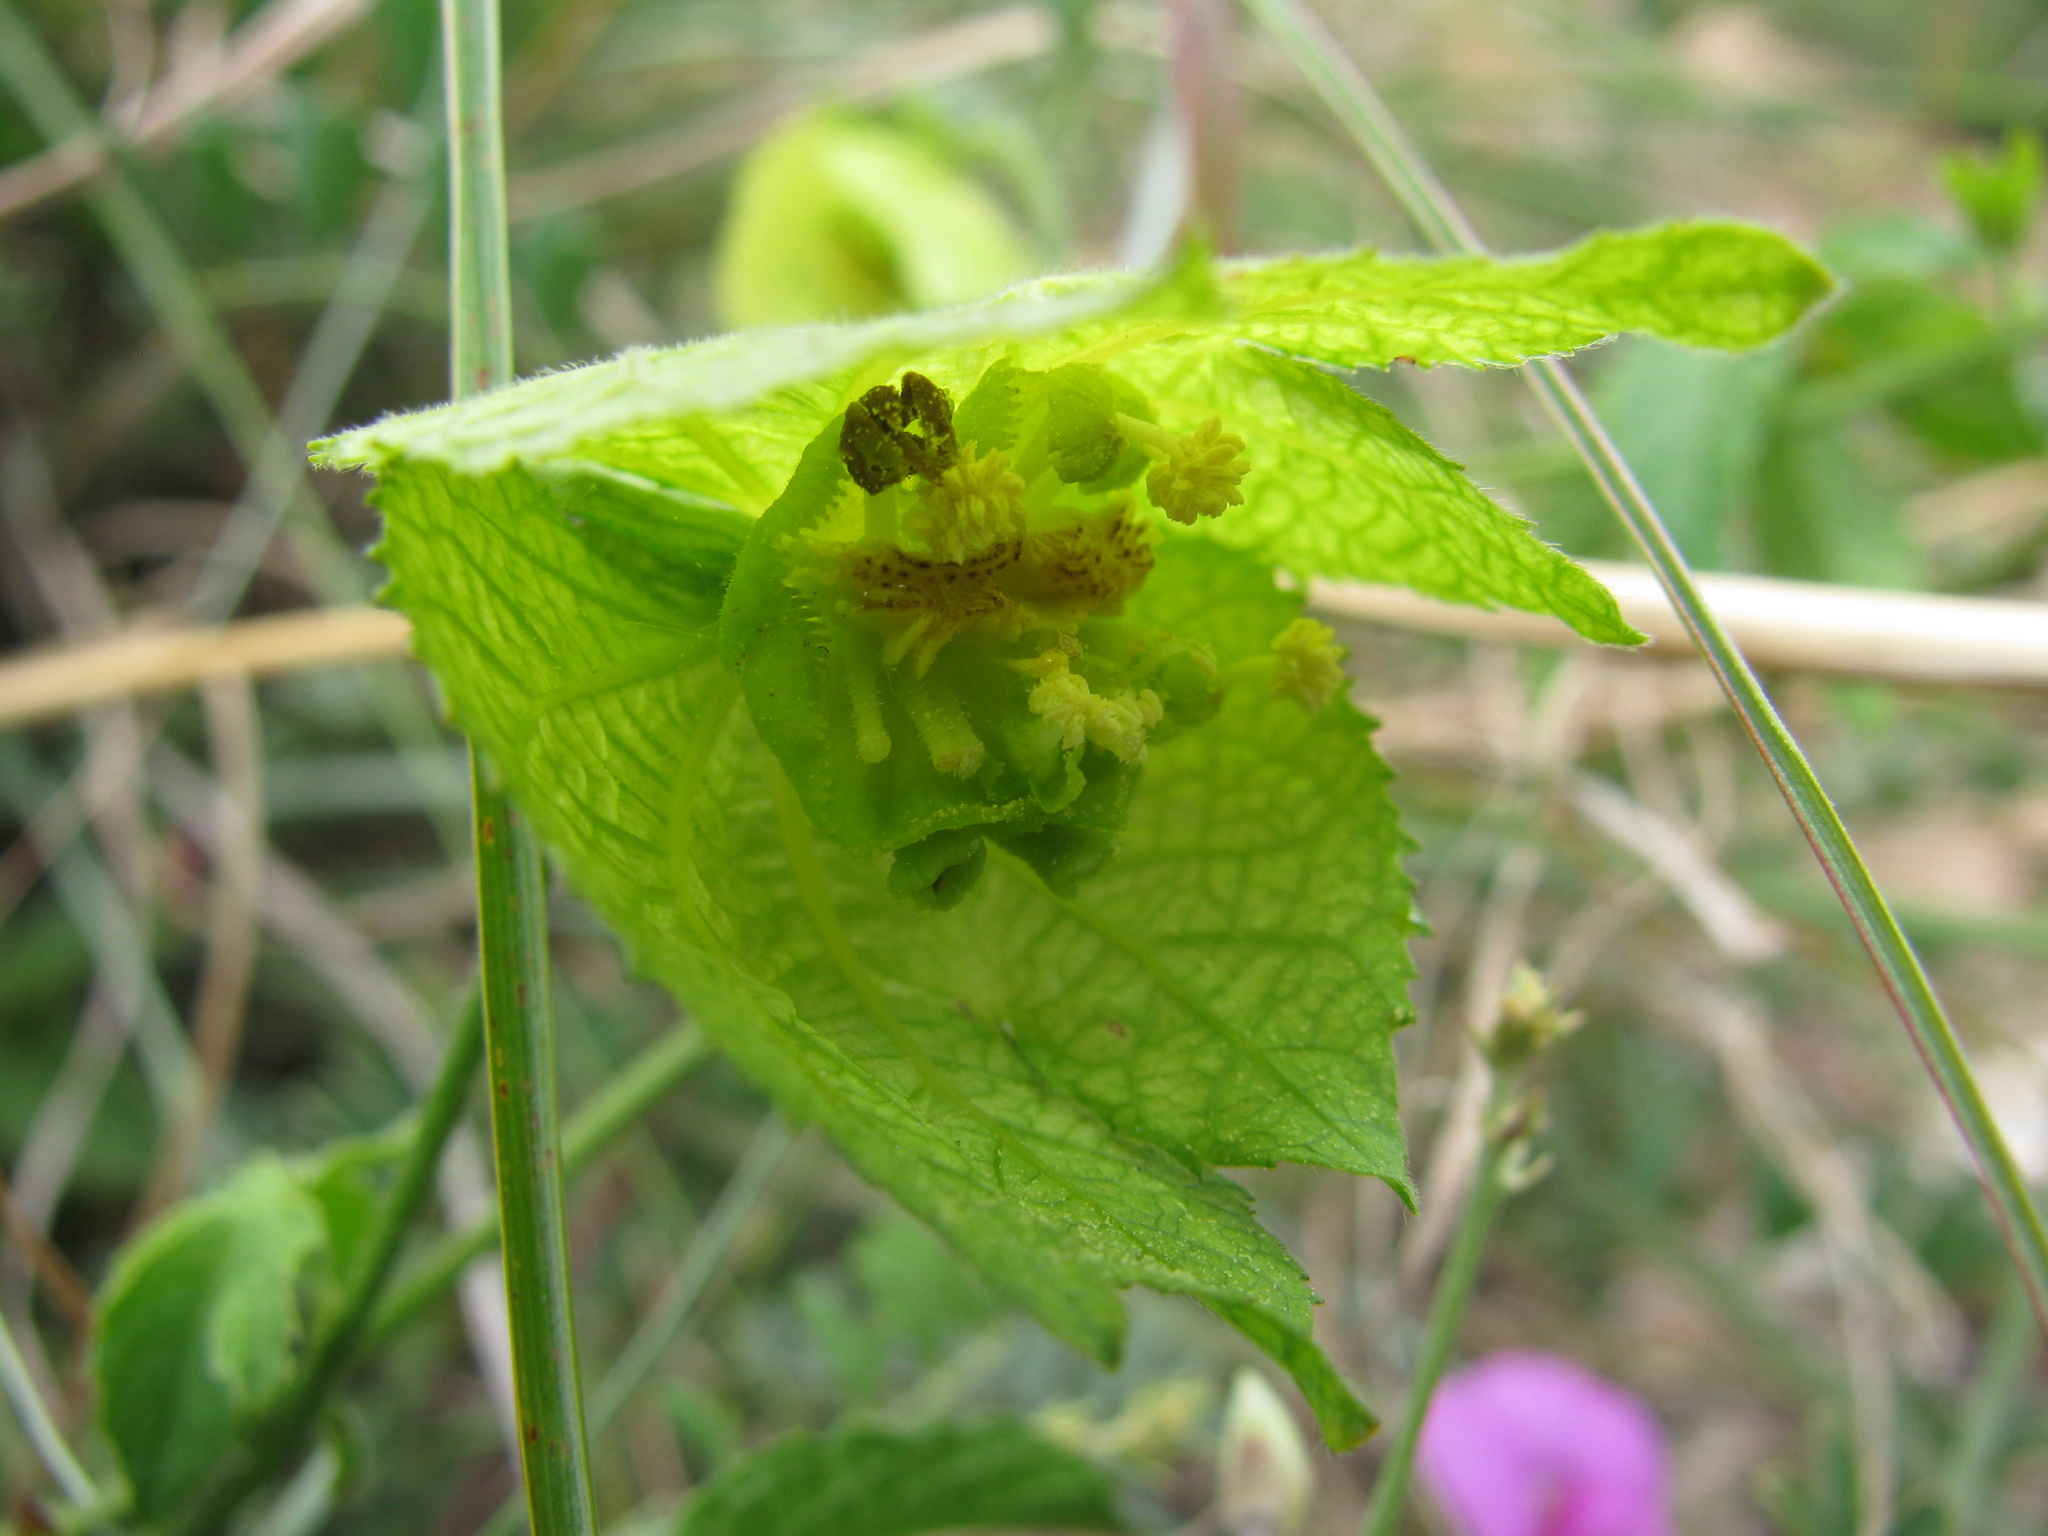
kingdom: Plantae
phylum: Tracheophyta
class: Magnoliopsida
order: Malpighiales
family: Euphorbiaceae
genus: Dalechampia
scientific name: Dalechampia capensis
